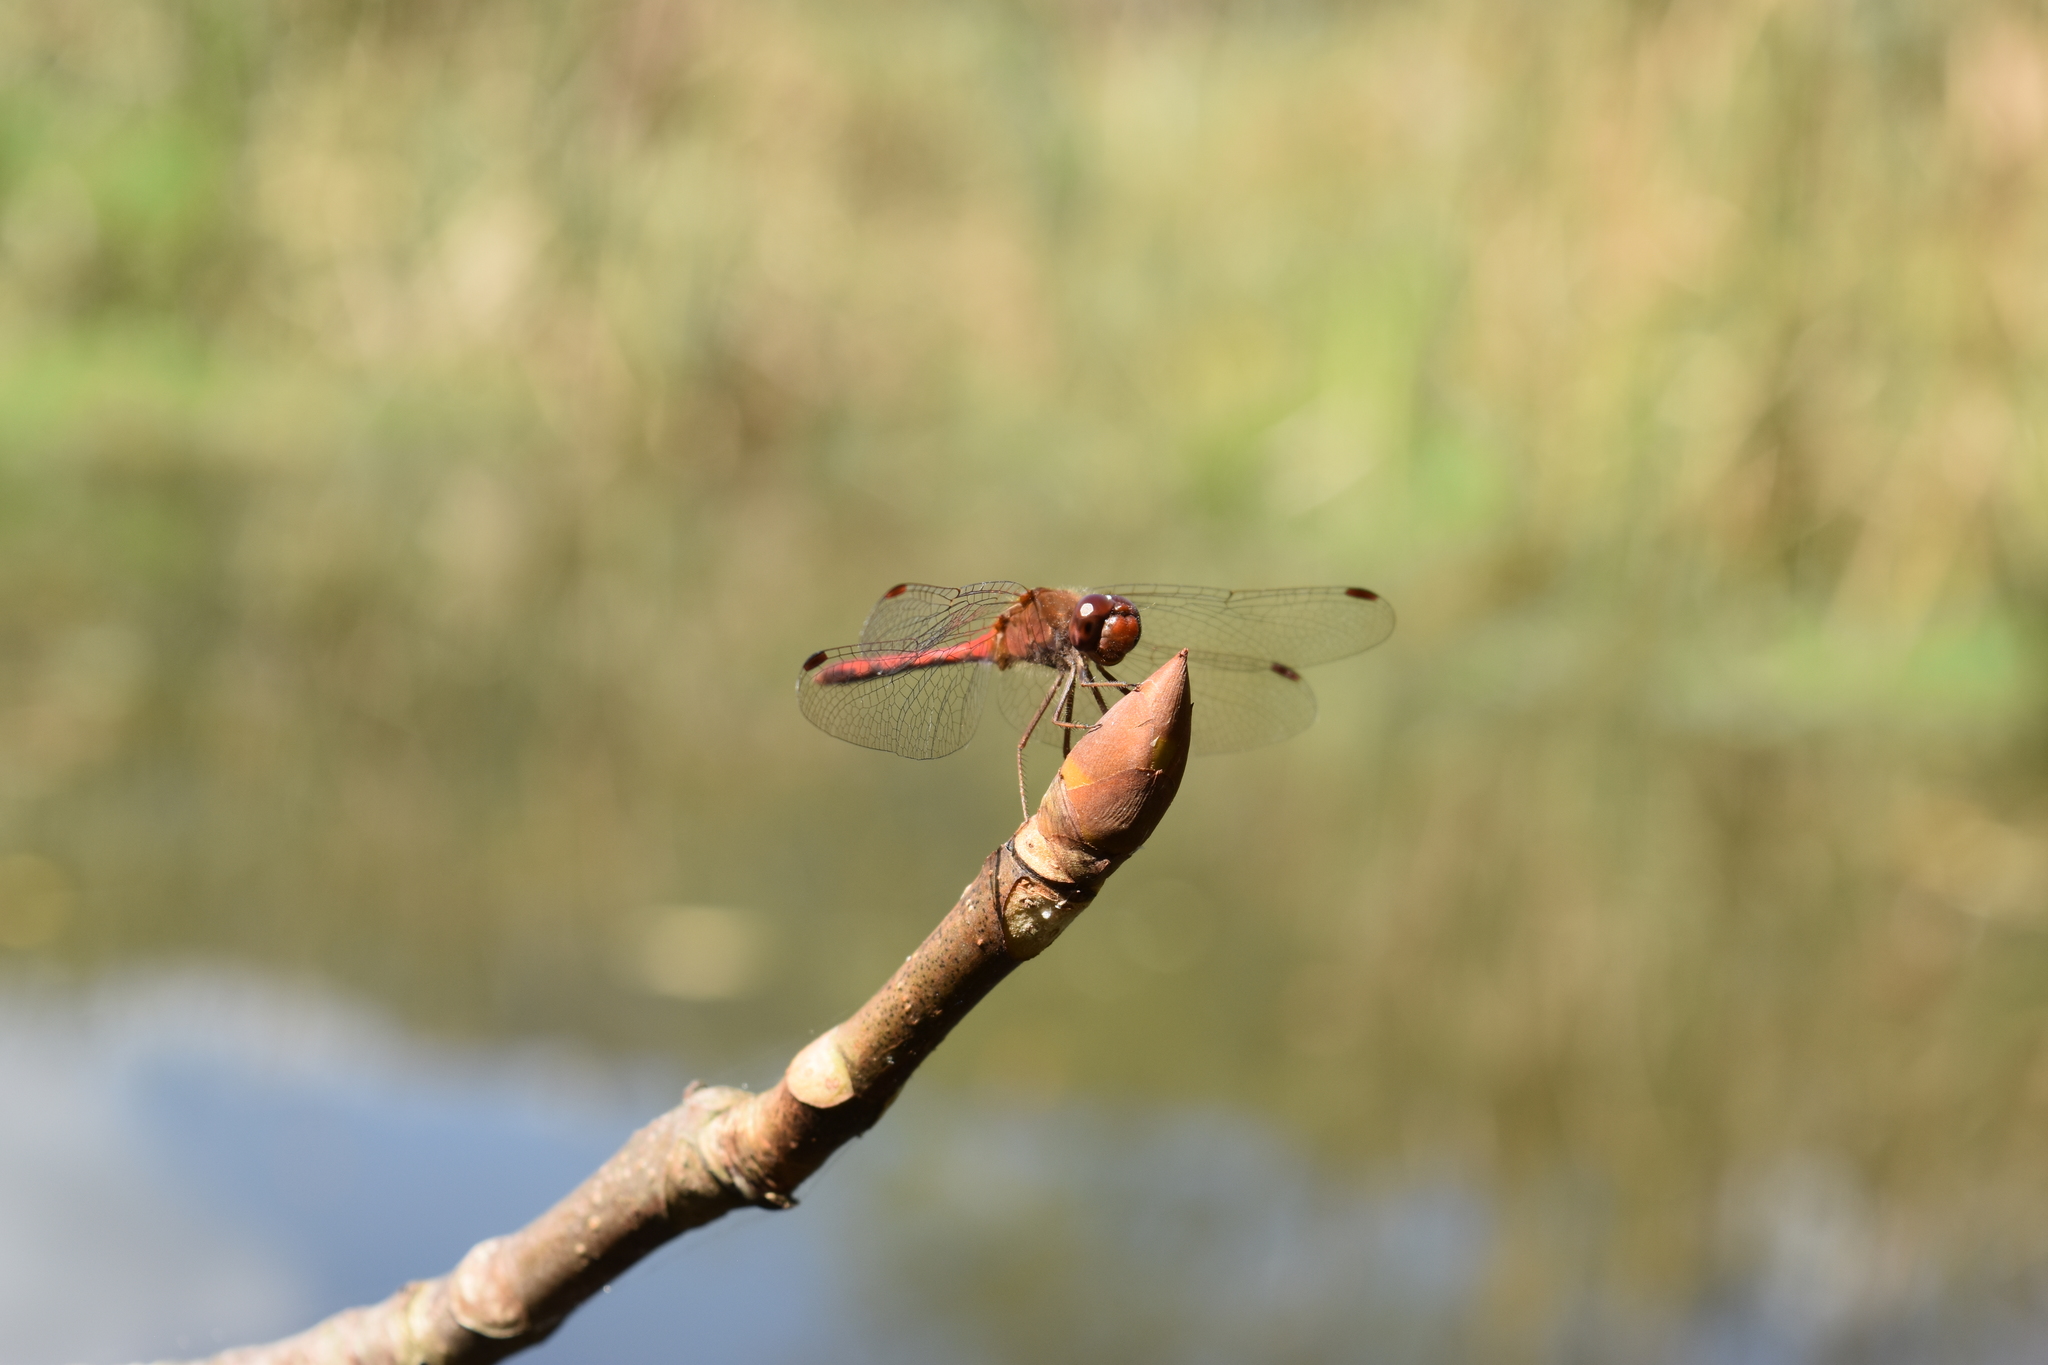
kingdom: Animalia
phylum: Arthropoda
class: Insecta
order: Odonata
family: Libellulidae
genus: Sympetrum
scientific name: Sympetrum vicinum
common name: Autumn meadowhawk
